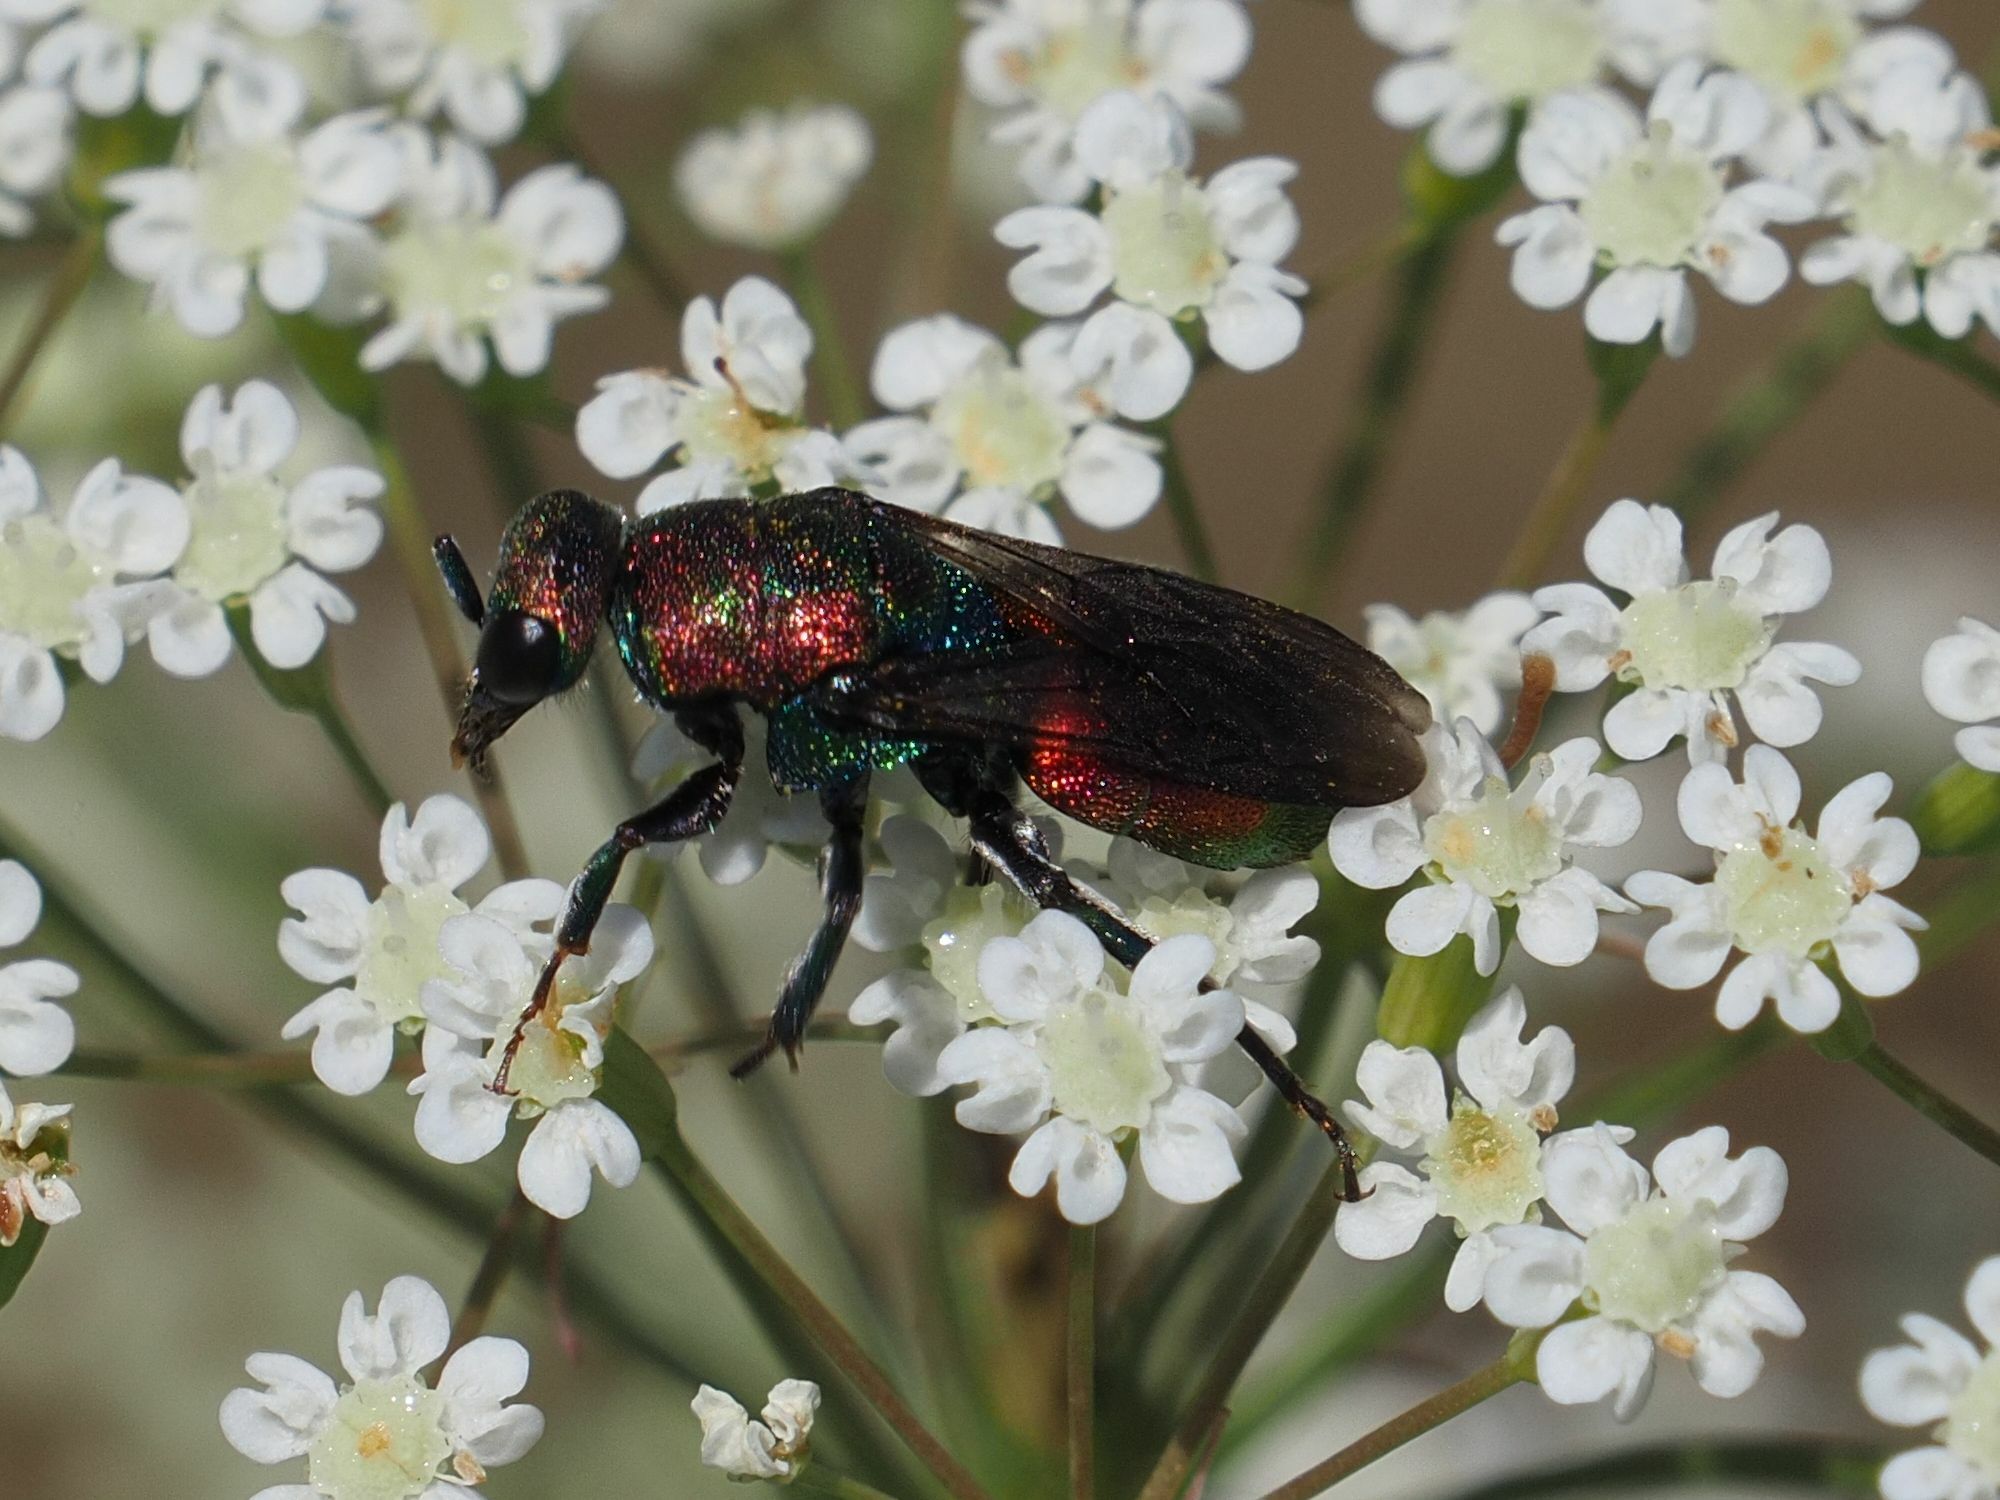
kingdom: Animalia
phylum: Arthropoda
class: Insecta
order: Hymenoptera
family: Chrysididae
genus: Hedychrum
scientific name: Hedychrum rutilans
